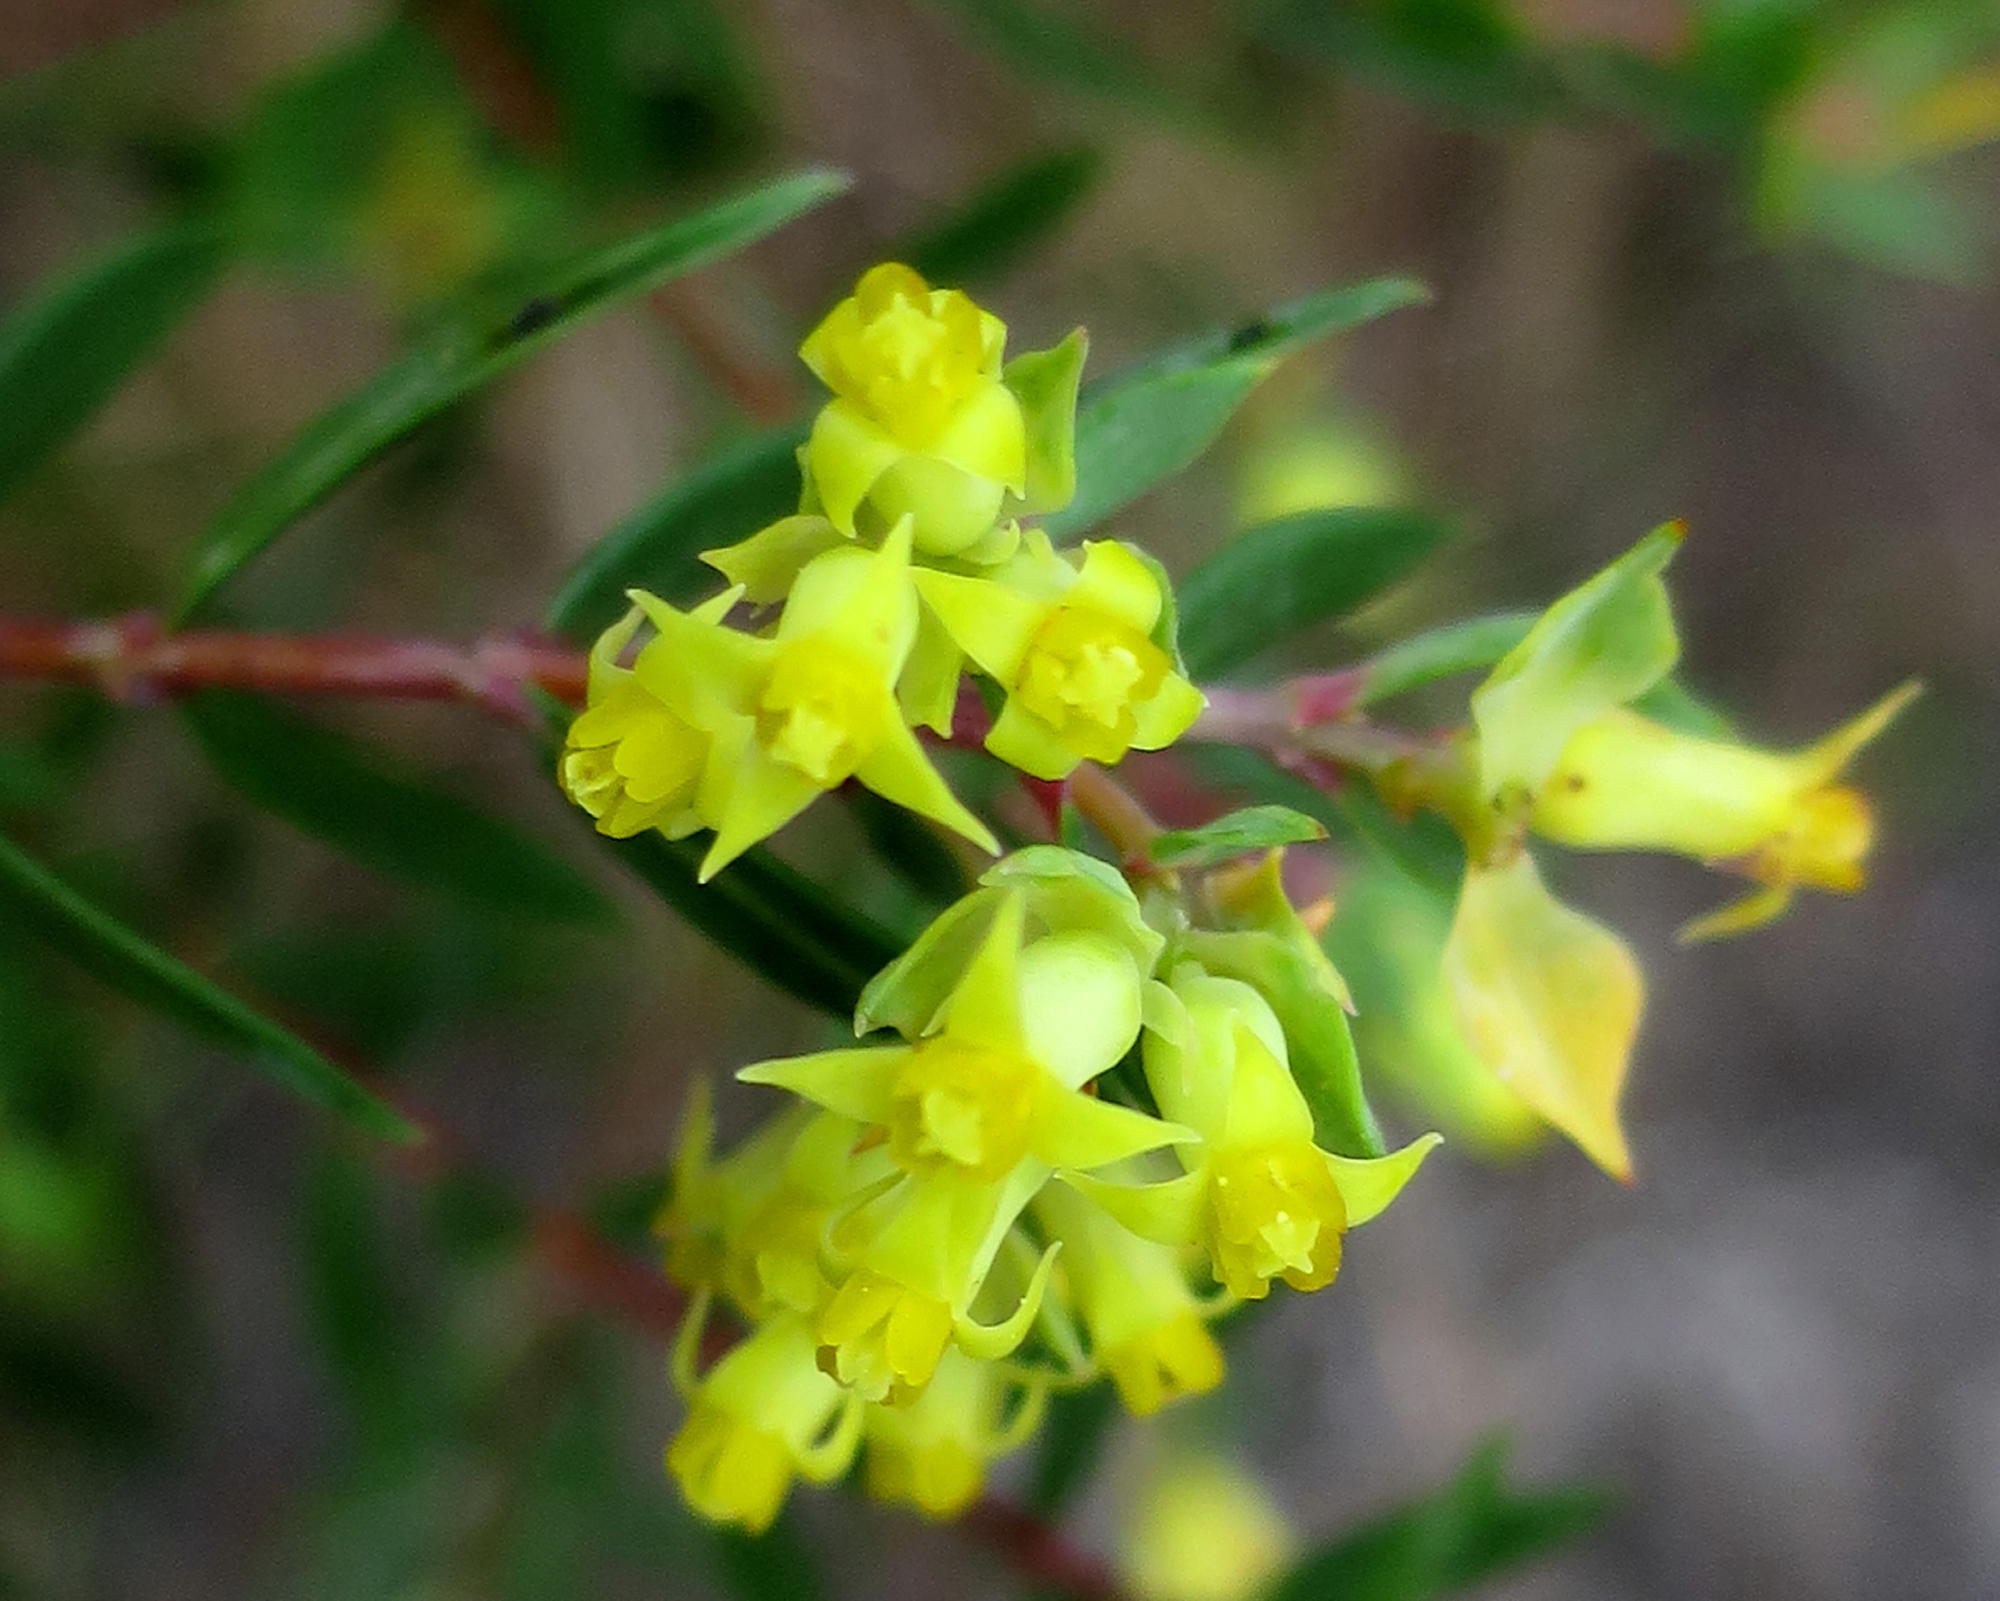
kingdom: Plantae
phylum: Tracheophyta
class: Magnoliopsida
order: Myrtales
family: Penaeaceae
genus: Penaea
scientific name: Penaea acutifolia
